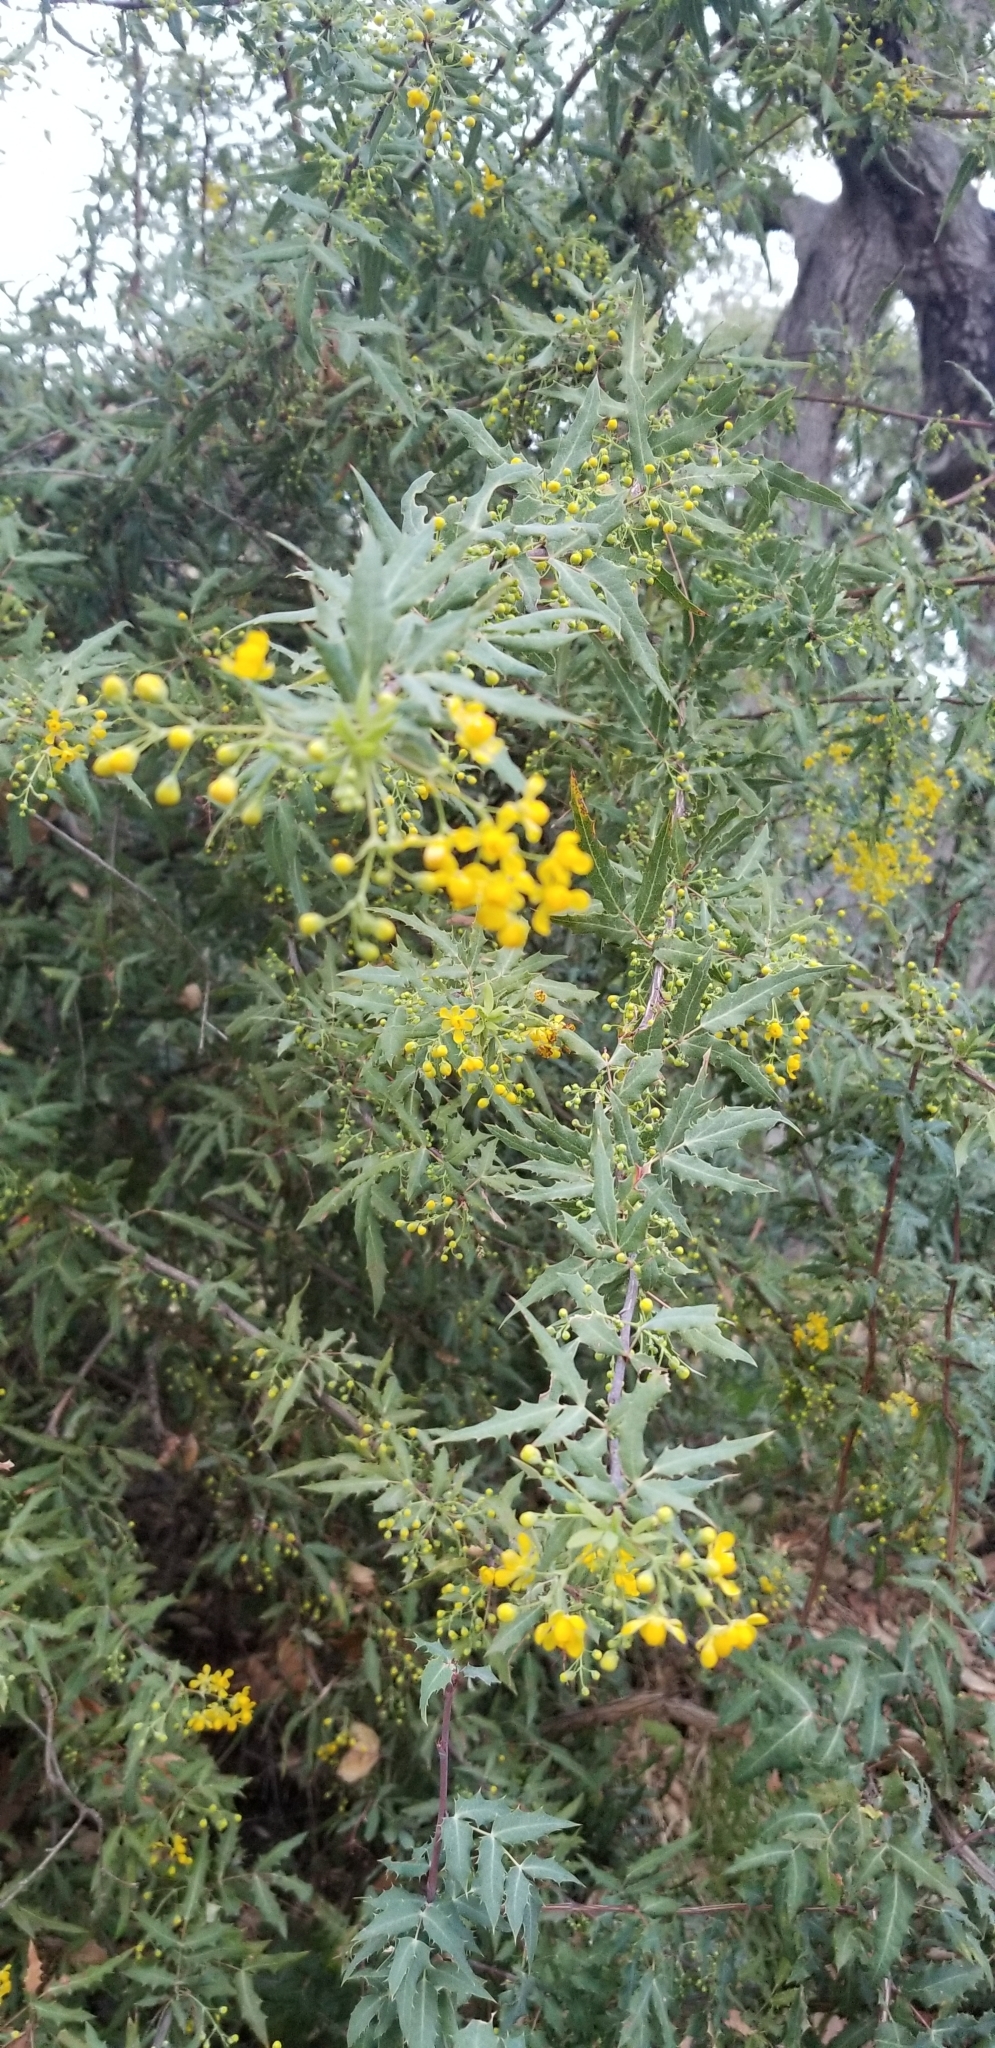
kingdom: Plantae
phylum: Tracheophyta
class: Magnoliopsida
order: Ranunculales
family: Berberidaceae
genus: Alloberberis
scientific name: Alloberberis nevinii
